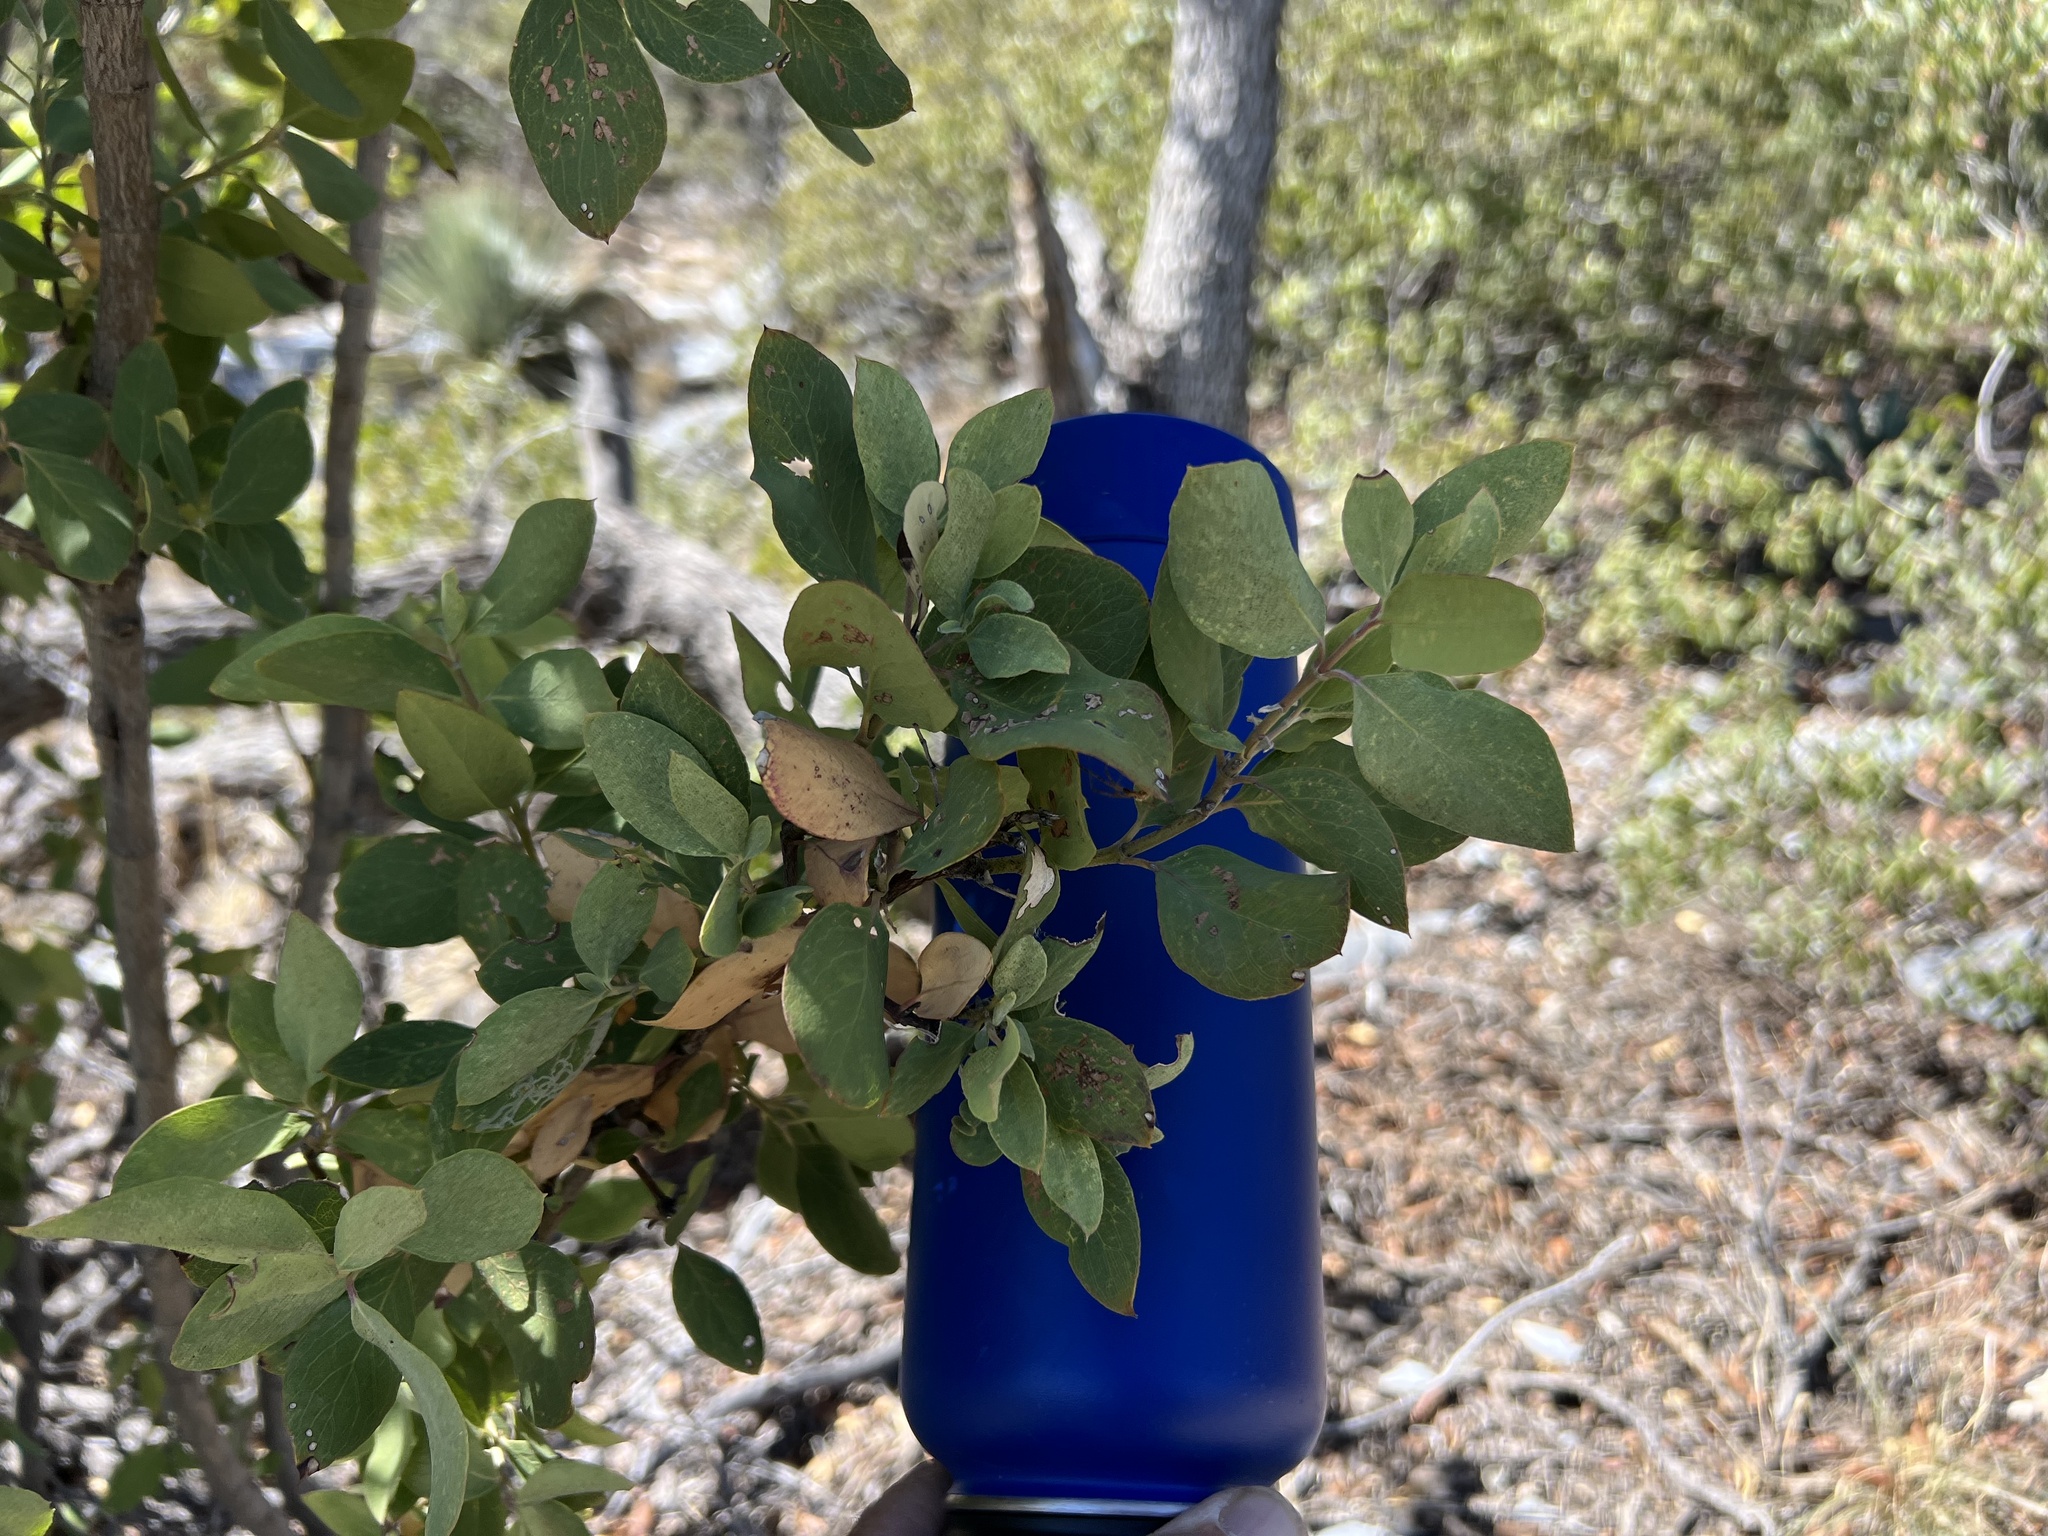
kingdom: Plantae
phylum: Tracheophyta
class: Magnoliopsida
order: Garryales
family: Garryaceae
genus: Garrya
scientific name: Garrya wrightii
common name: Wright's silktassel
